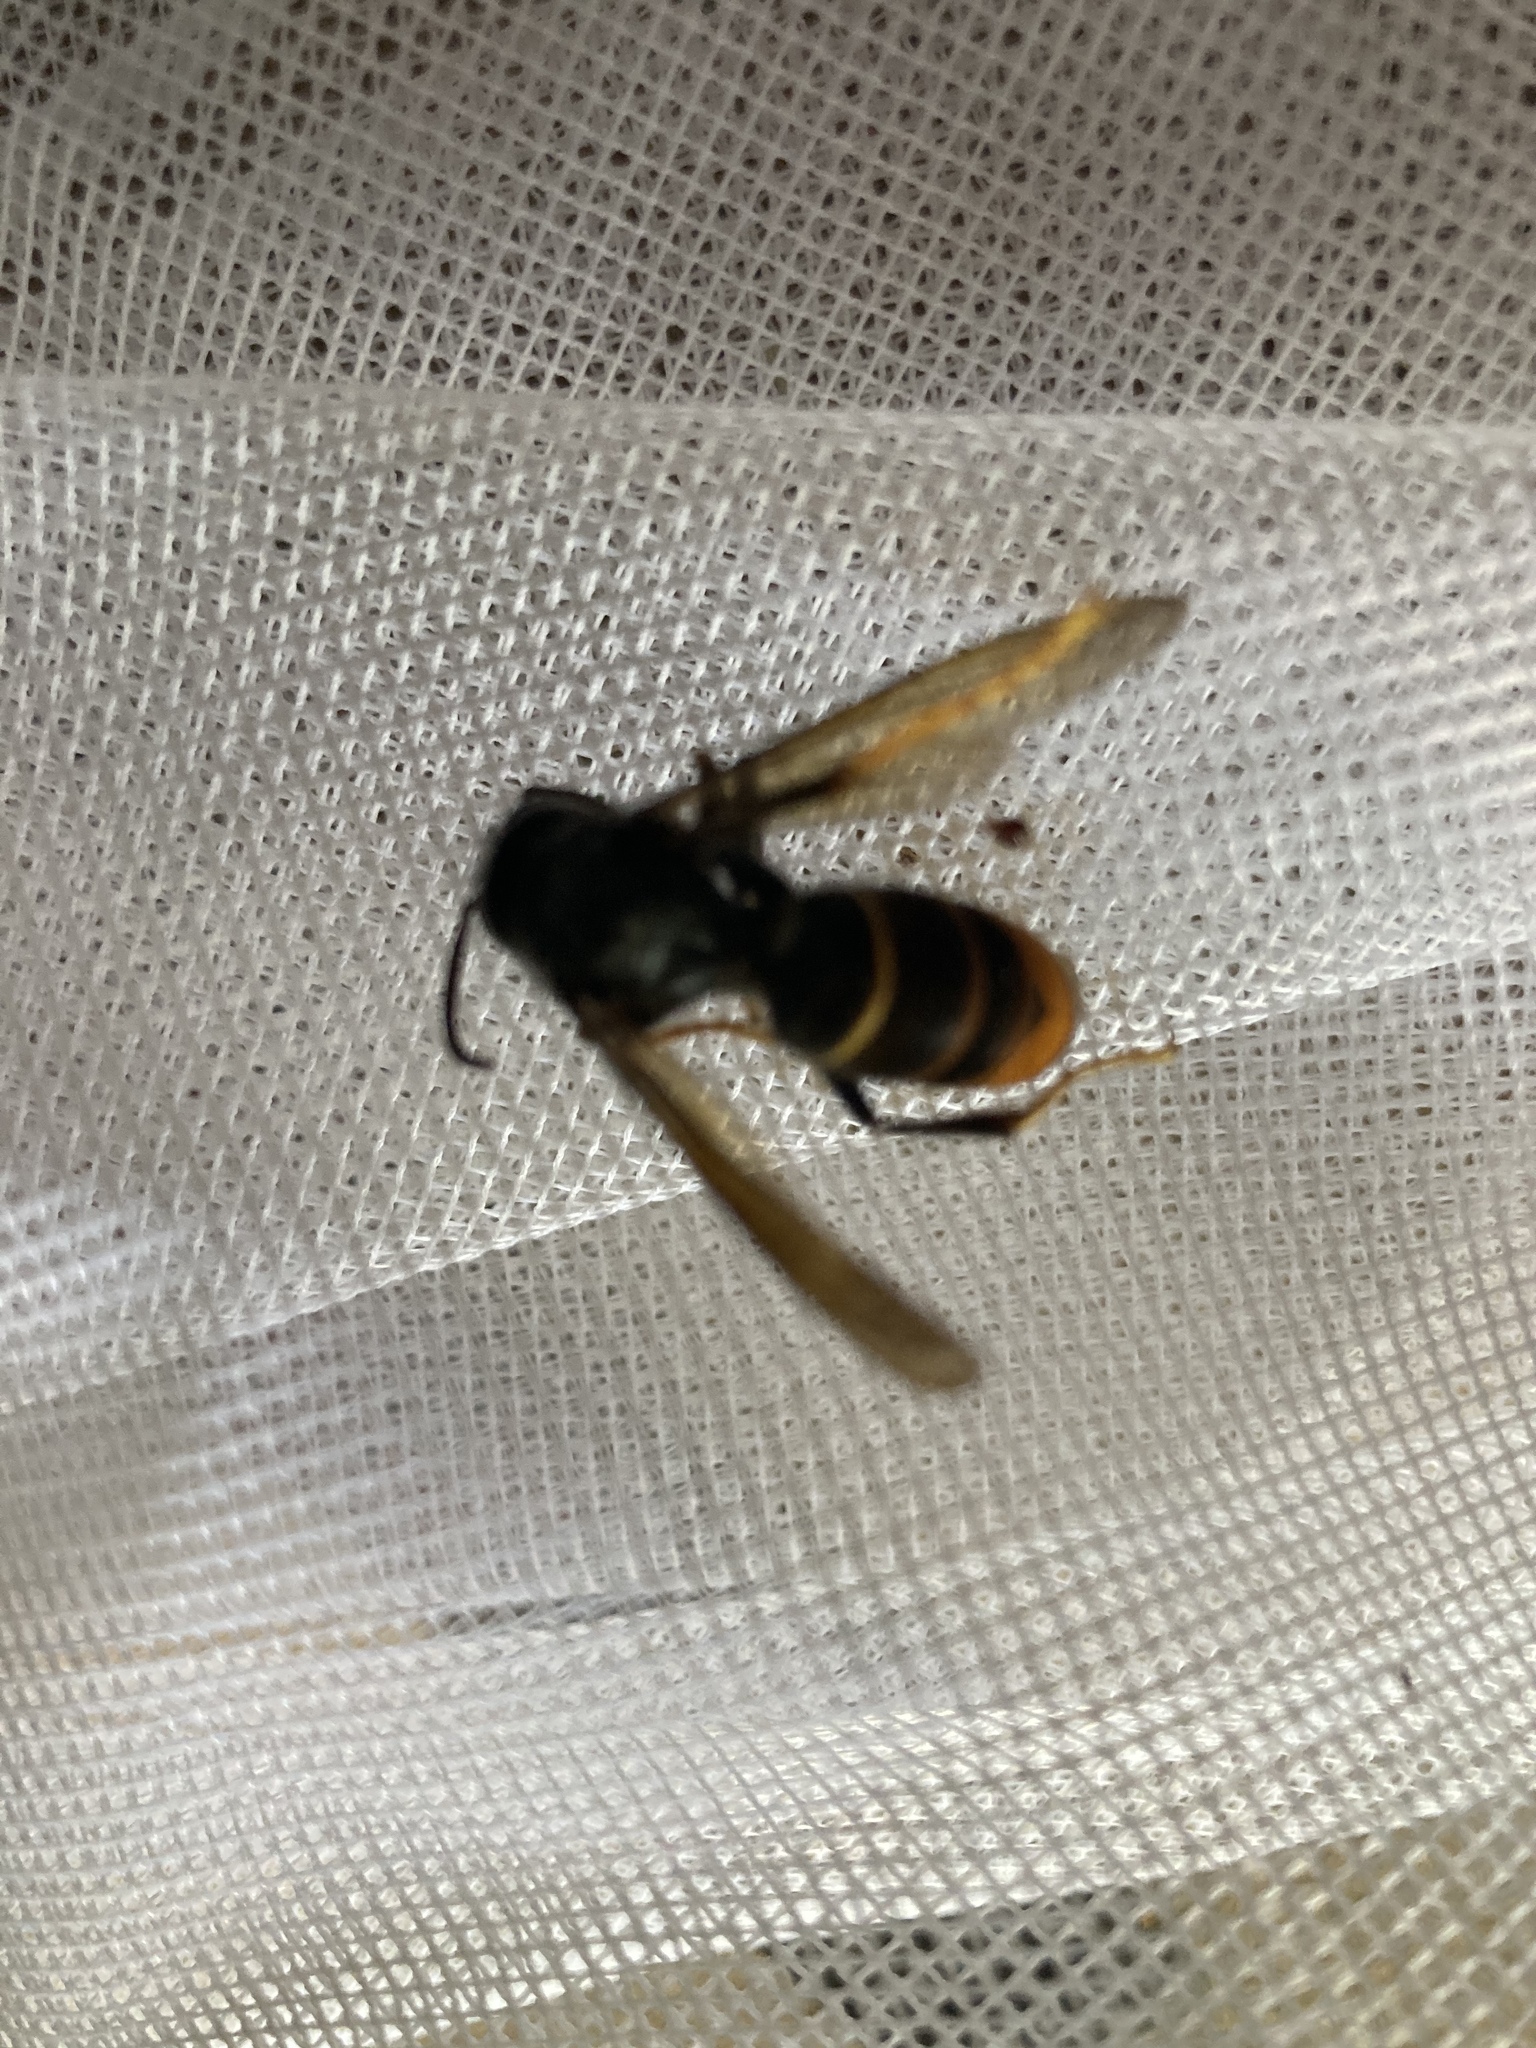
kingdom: Animalia
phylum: Arthropoda
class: Insecta
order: Hymenoptera
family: Vespidae
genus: Vespa
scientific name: Vespa velutina
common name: Asian hornet
